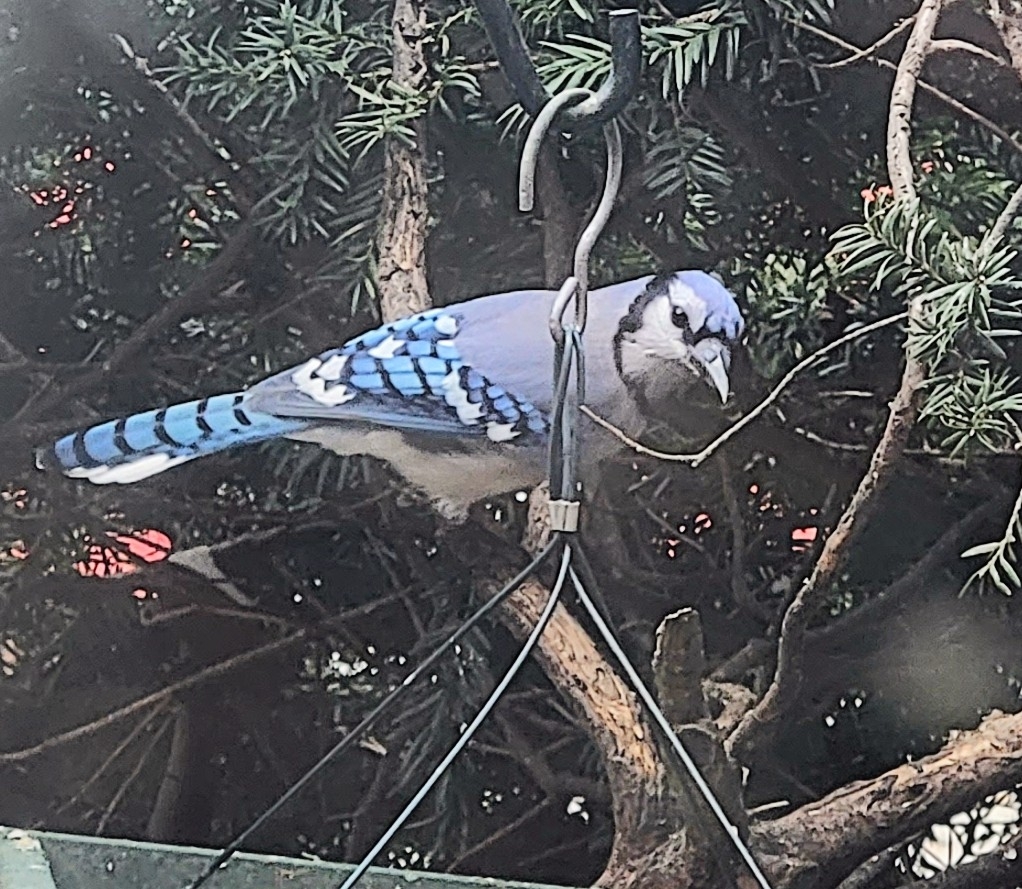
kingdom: Animalia
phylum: Chordata
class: Aves
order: Passeriformes
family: Corvidae
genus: Cyanocitta
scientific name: Cyanocitta cristata
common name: Blue jay
